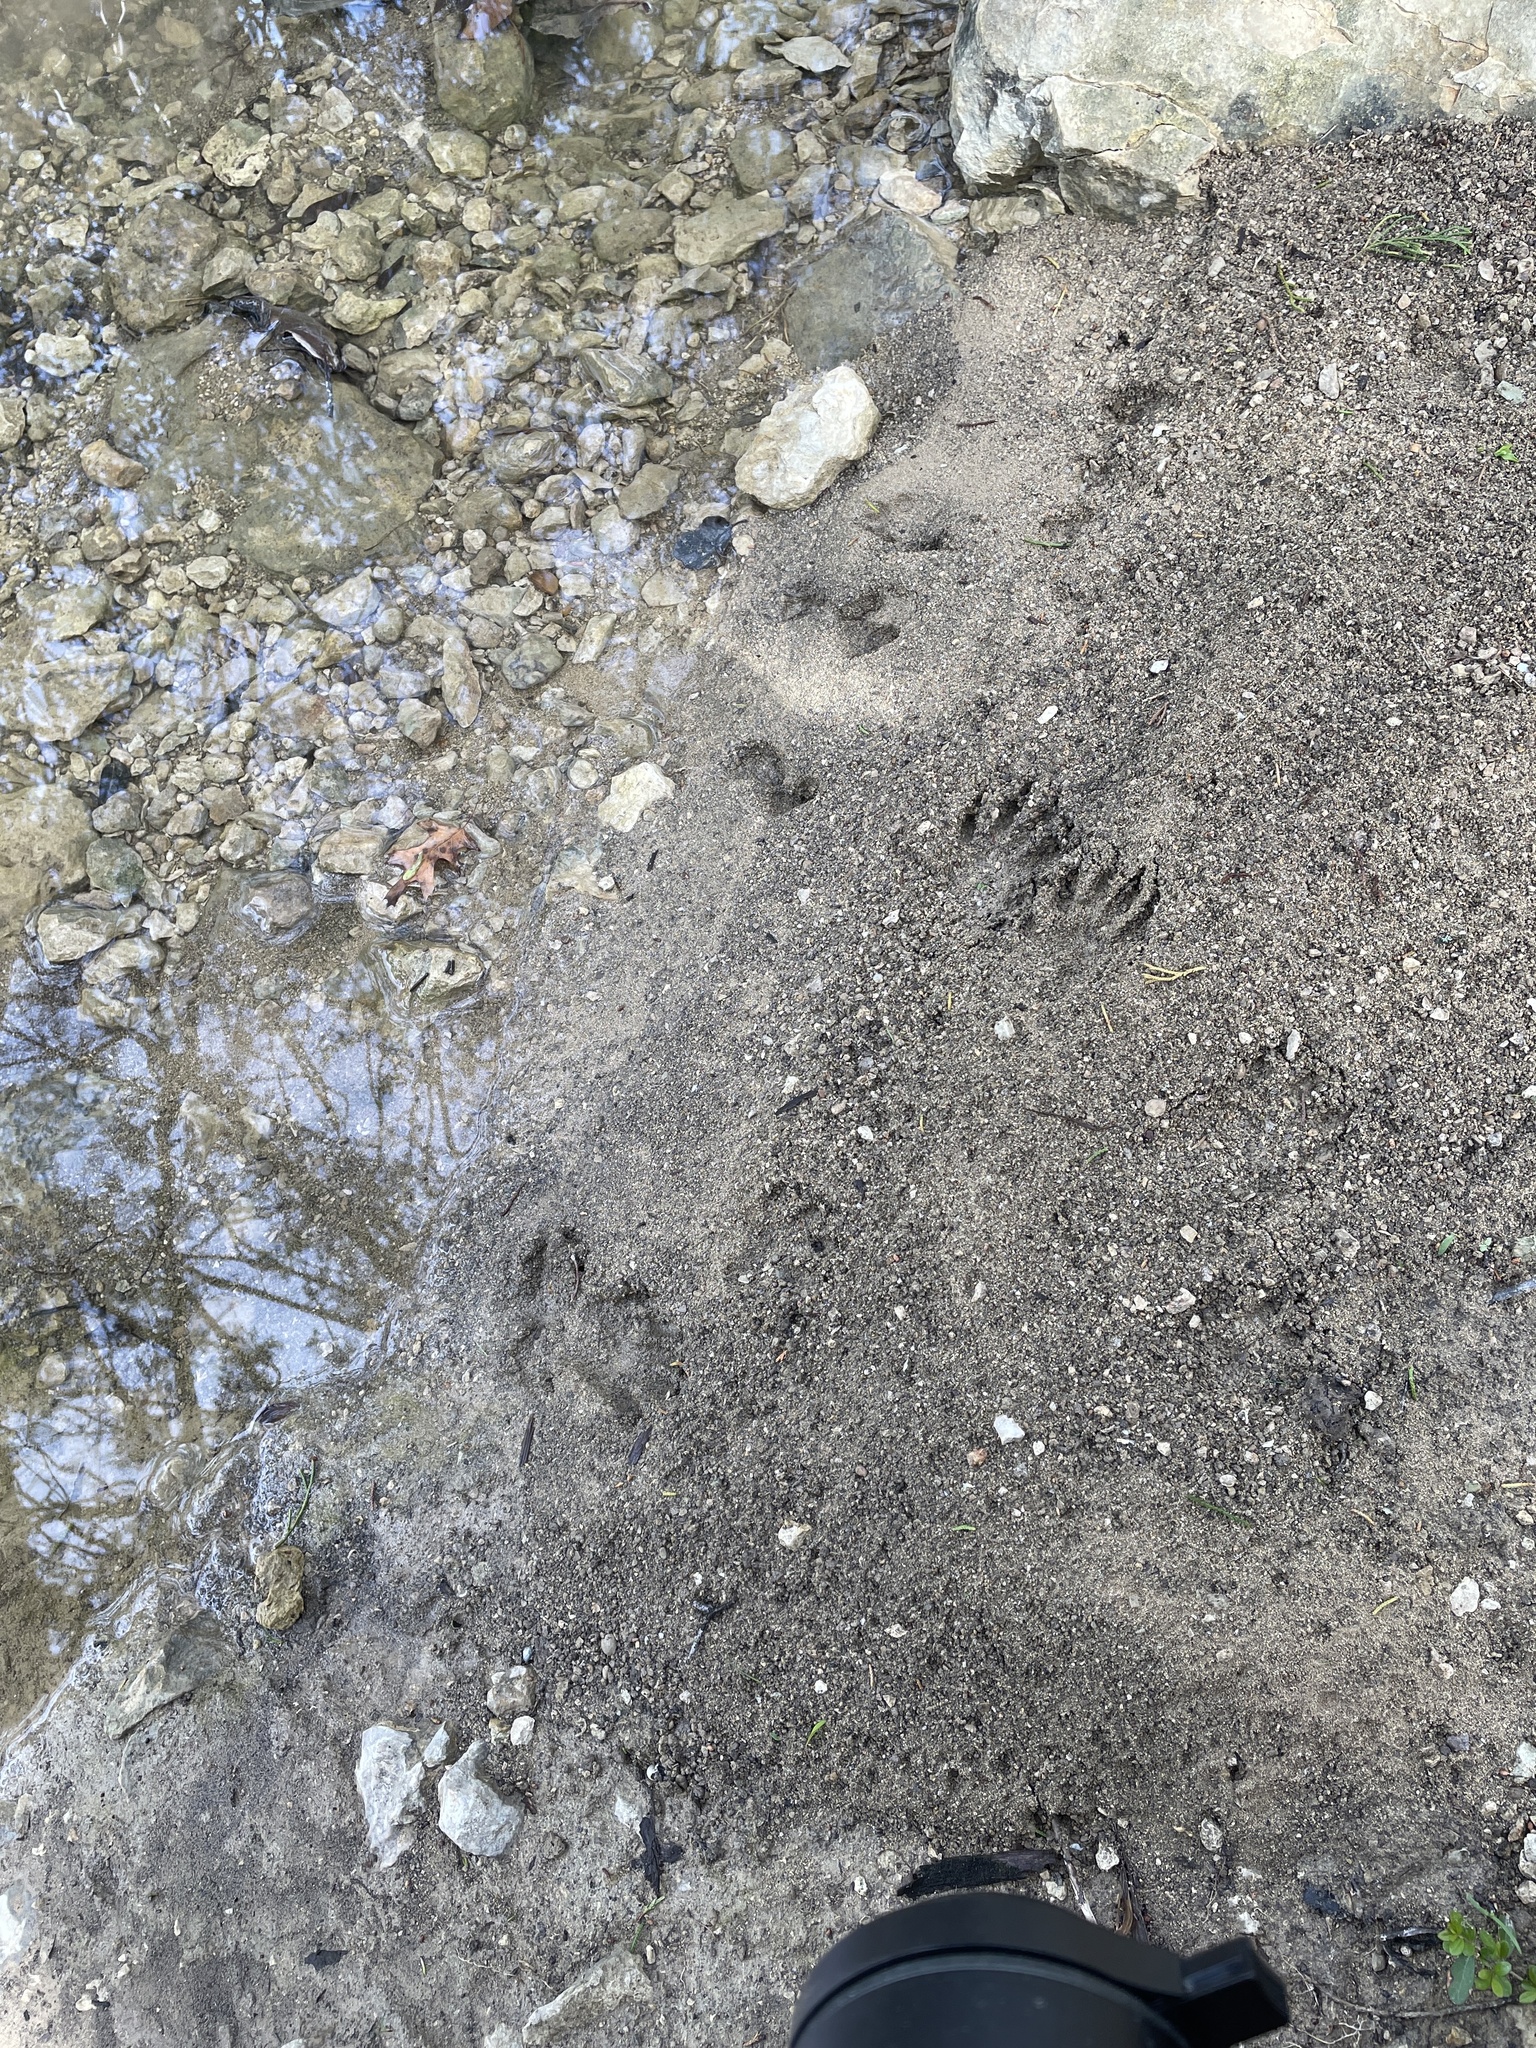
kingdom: Animalia
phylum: Chordata
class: Mammalia
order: Carnivora
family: Procyonidae
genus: Procyon
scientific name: Procyon lotor
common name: Raccoon
